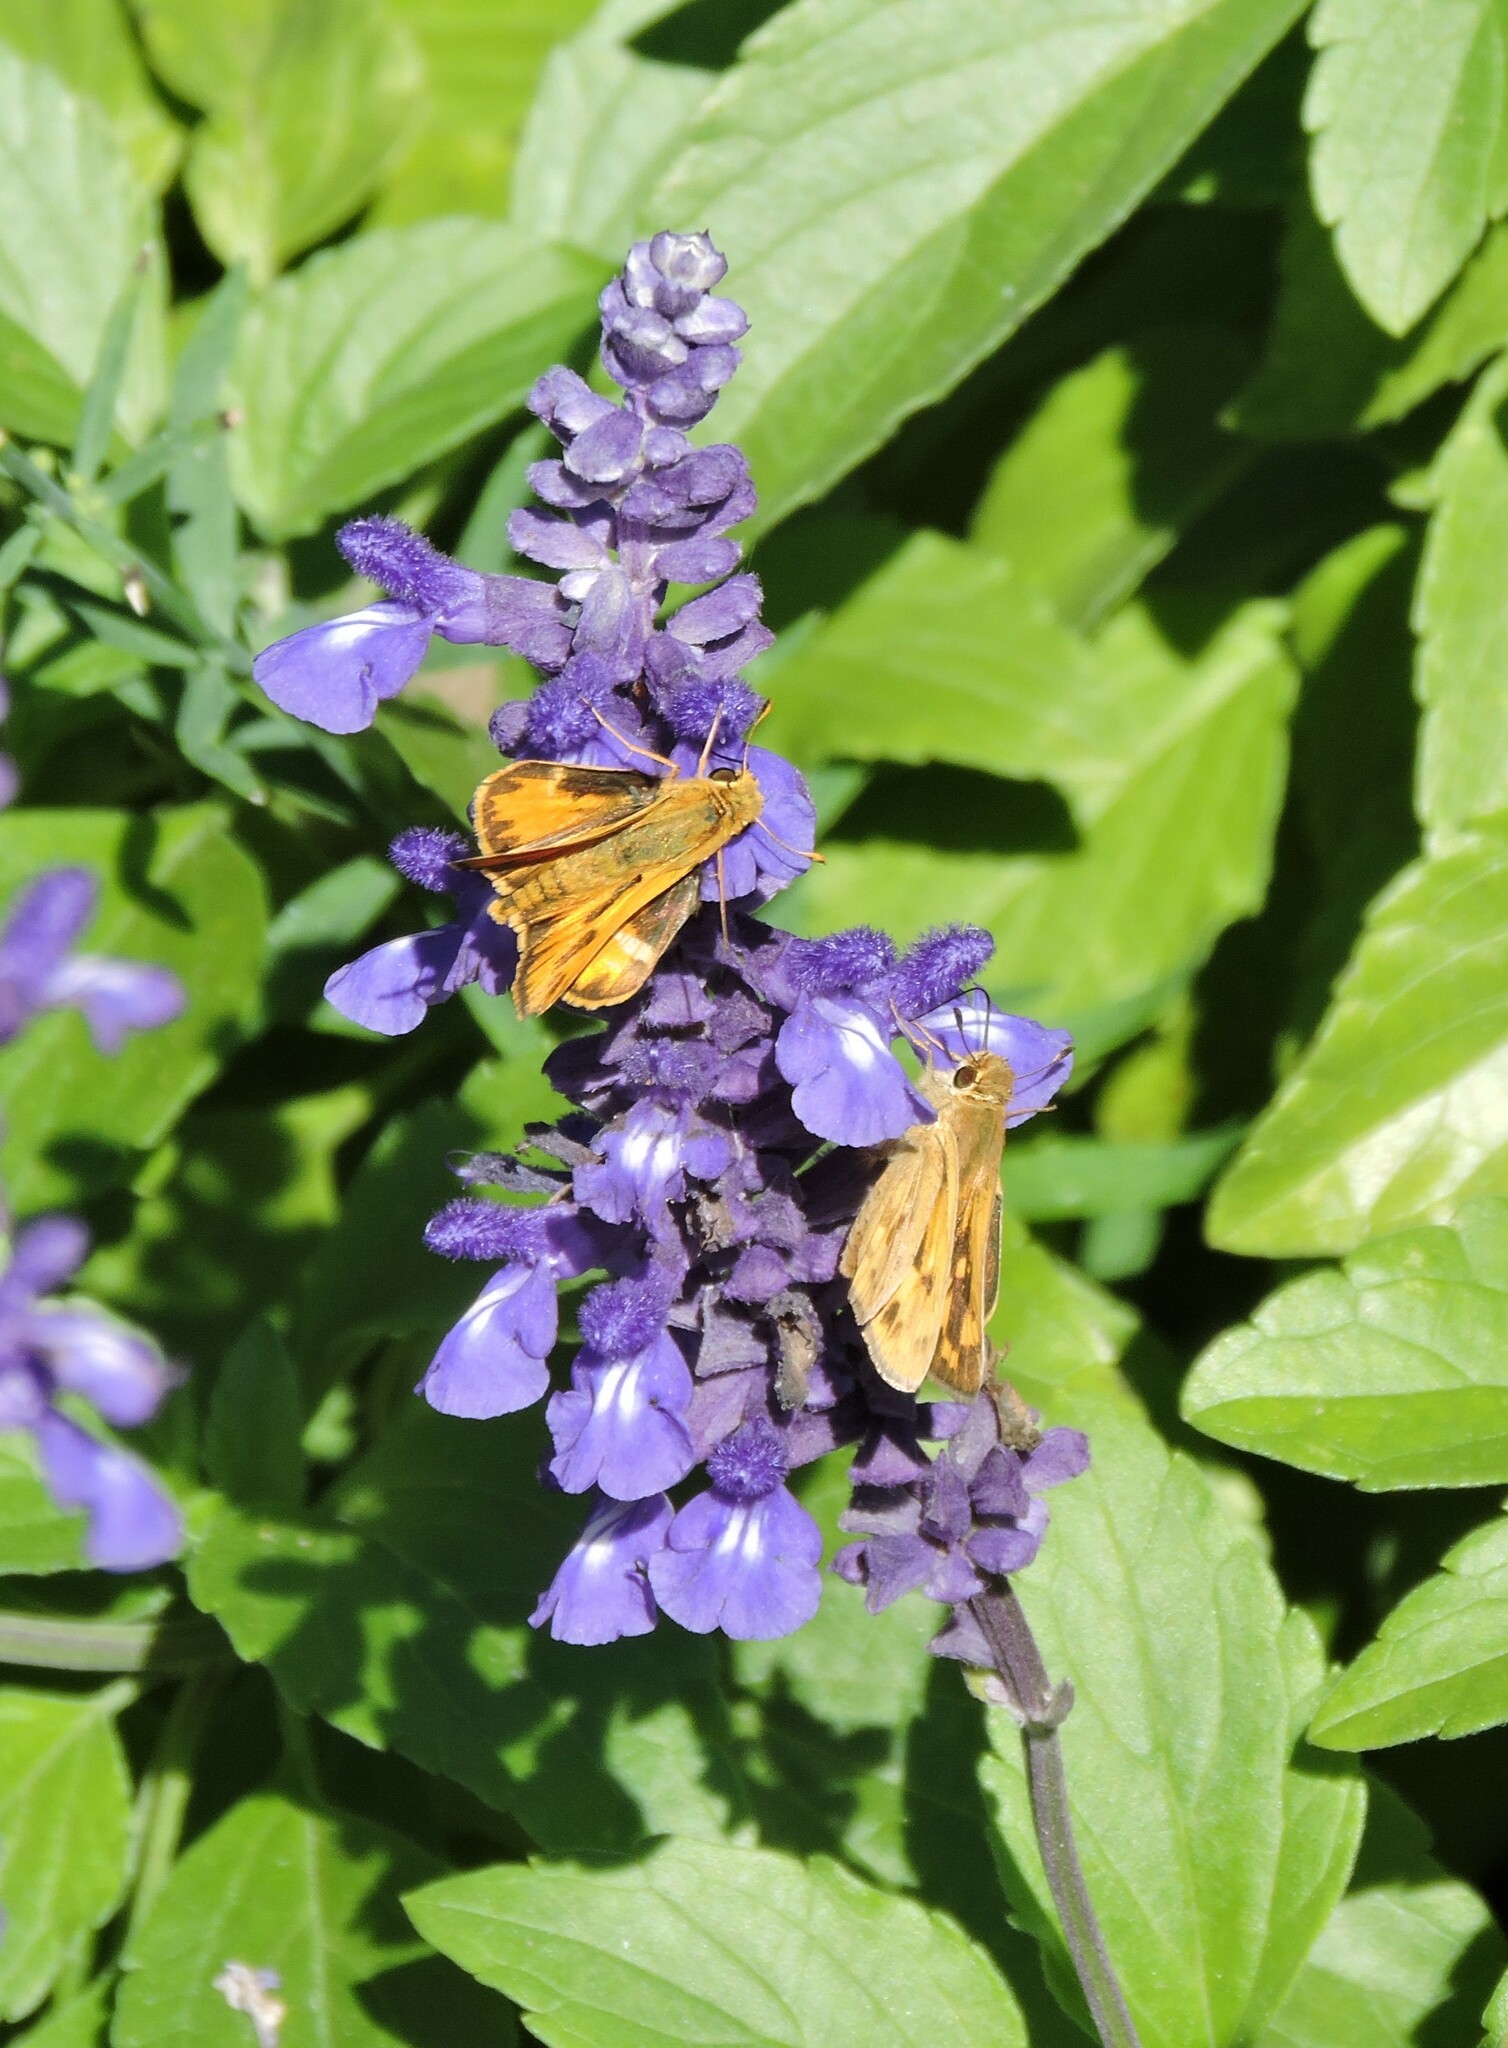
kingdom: Animalia
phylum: Arthropoda
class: Insecta
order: Lepidoptera
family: Hesperiidae
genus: Hylephila
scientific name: Hylephila phyleus
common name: Fiery skipper
